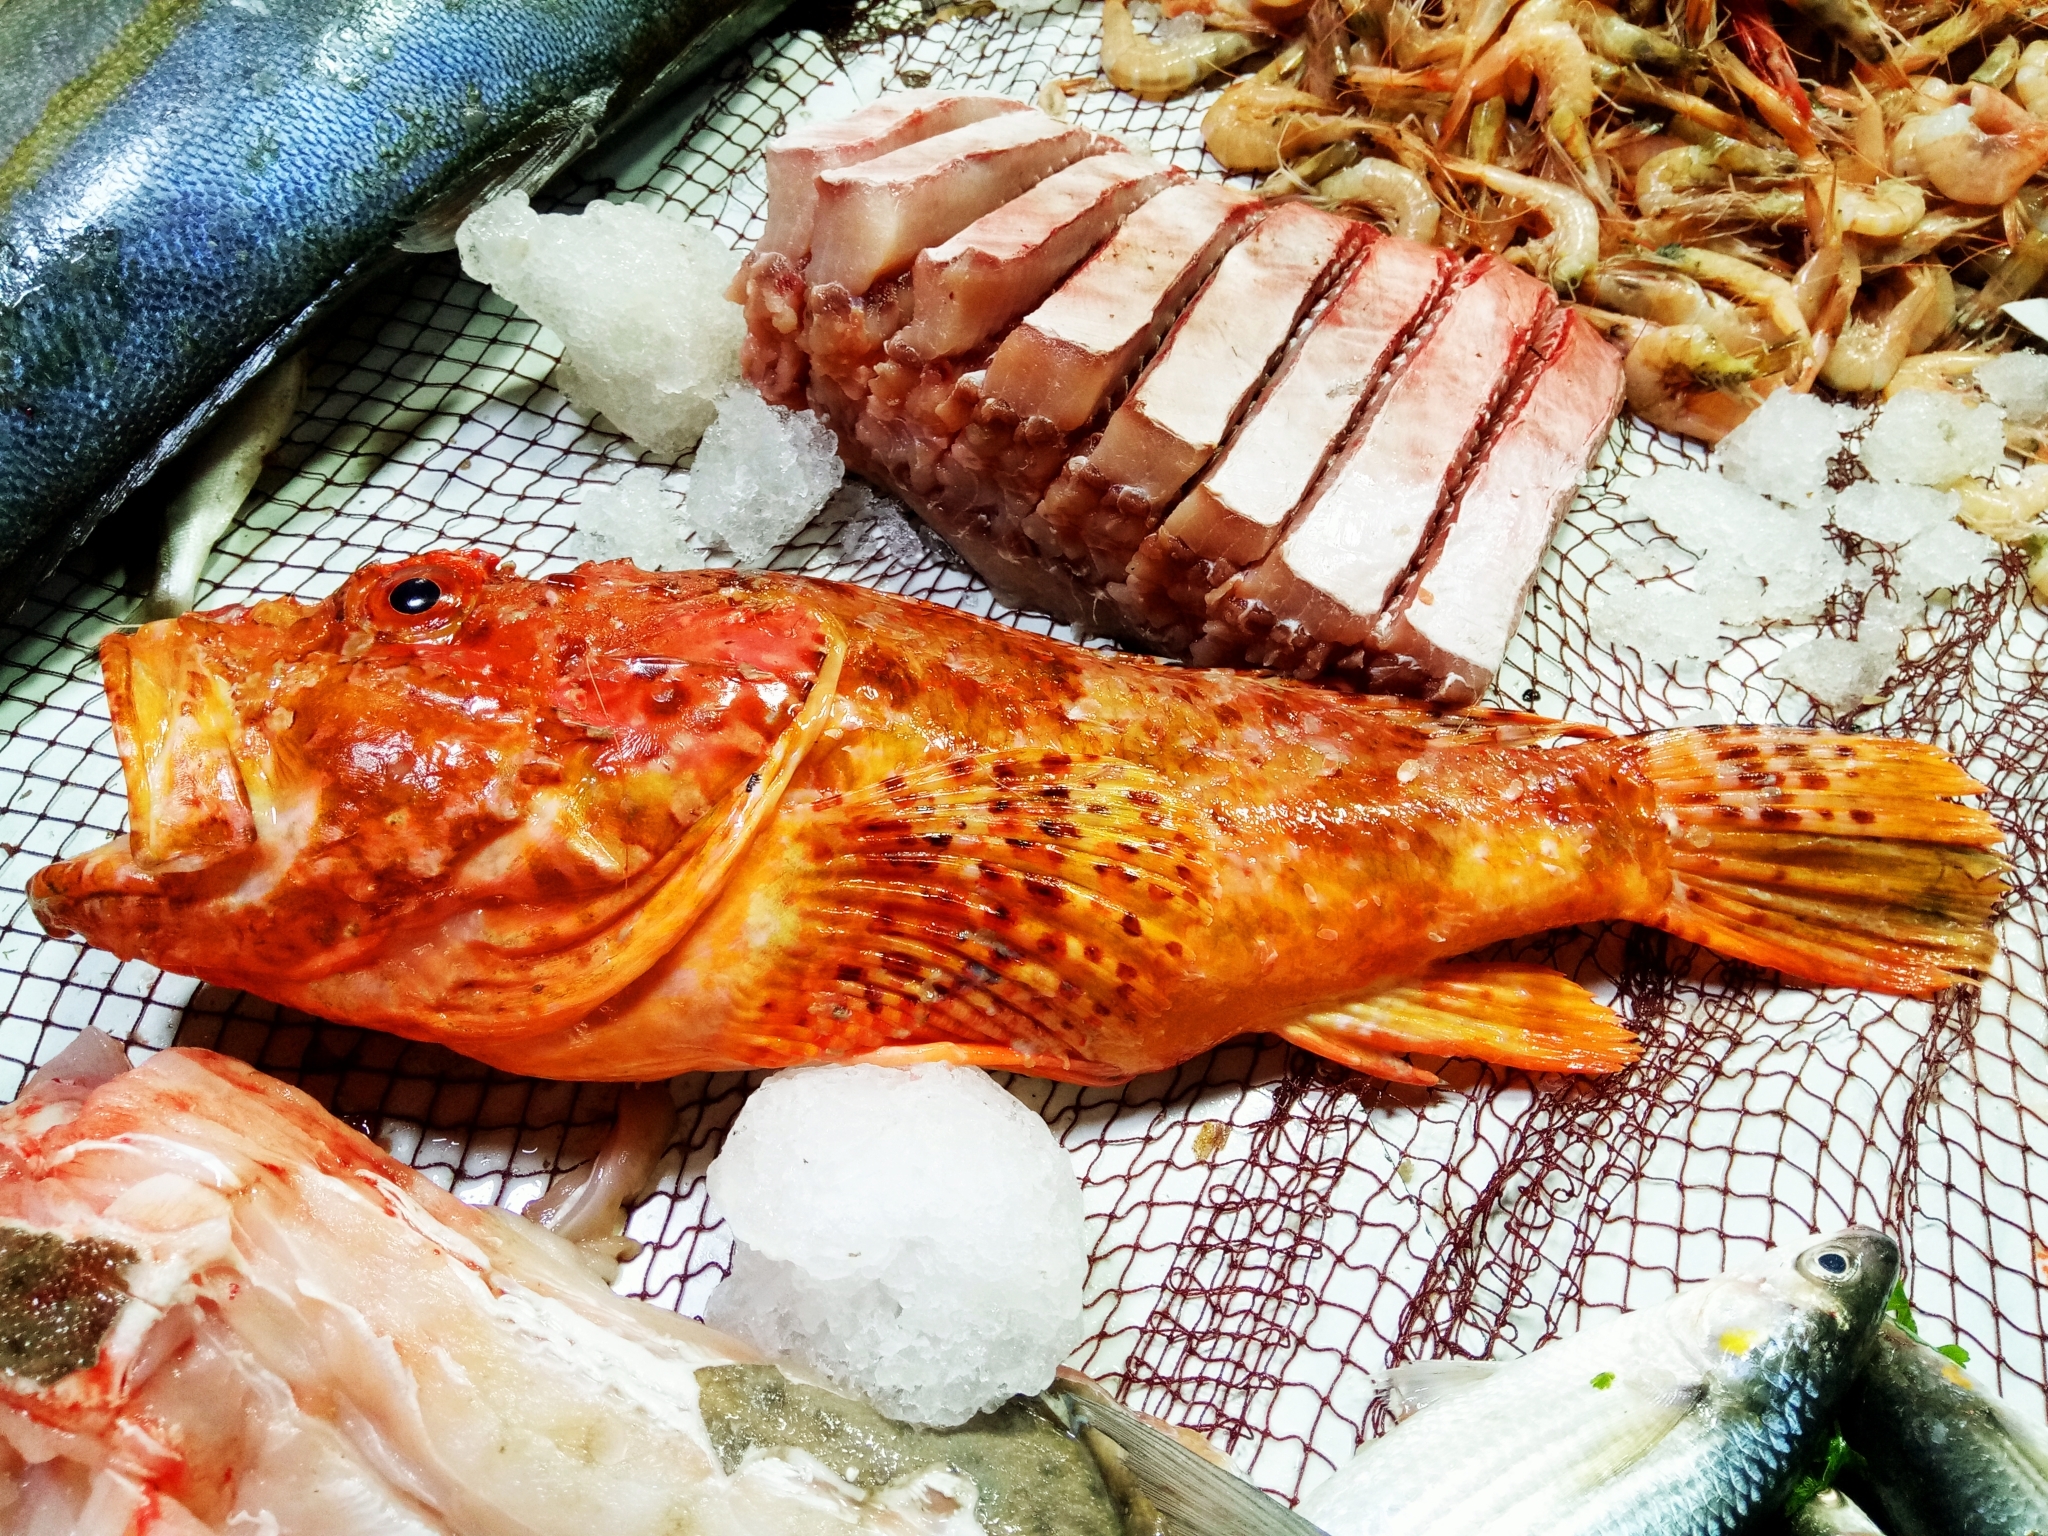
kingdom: Animalia
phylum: Chordata
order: Scorpaeniformes
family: Scorpaenidae
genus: Scorpaena
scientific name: Scorpaena scrofa
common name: Red scorpionfish
